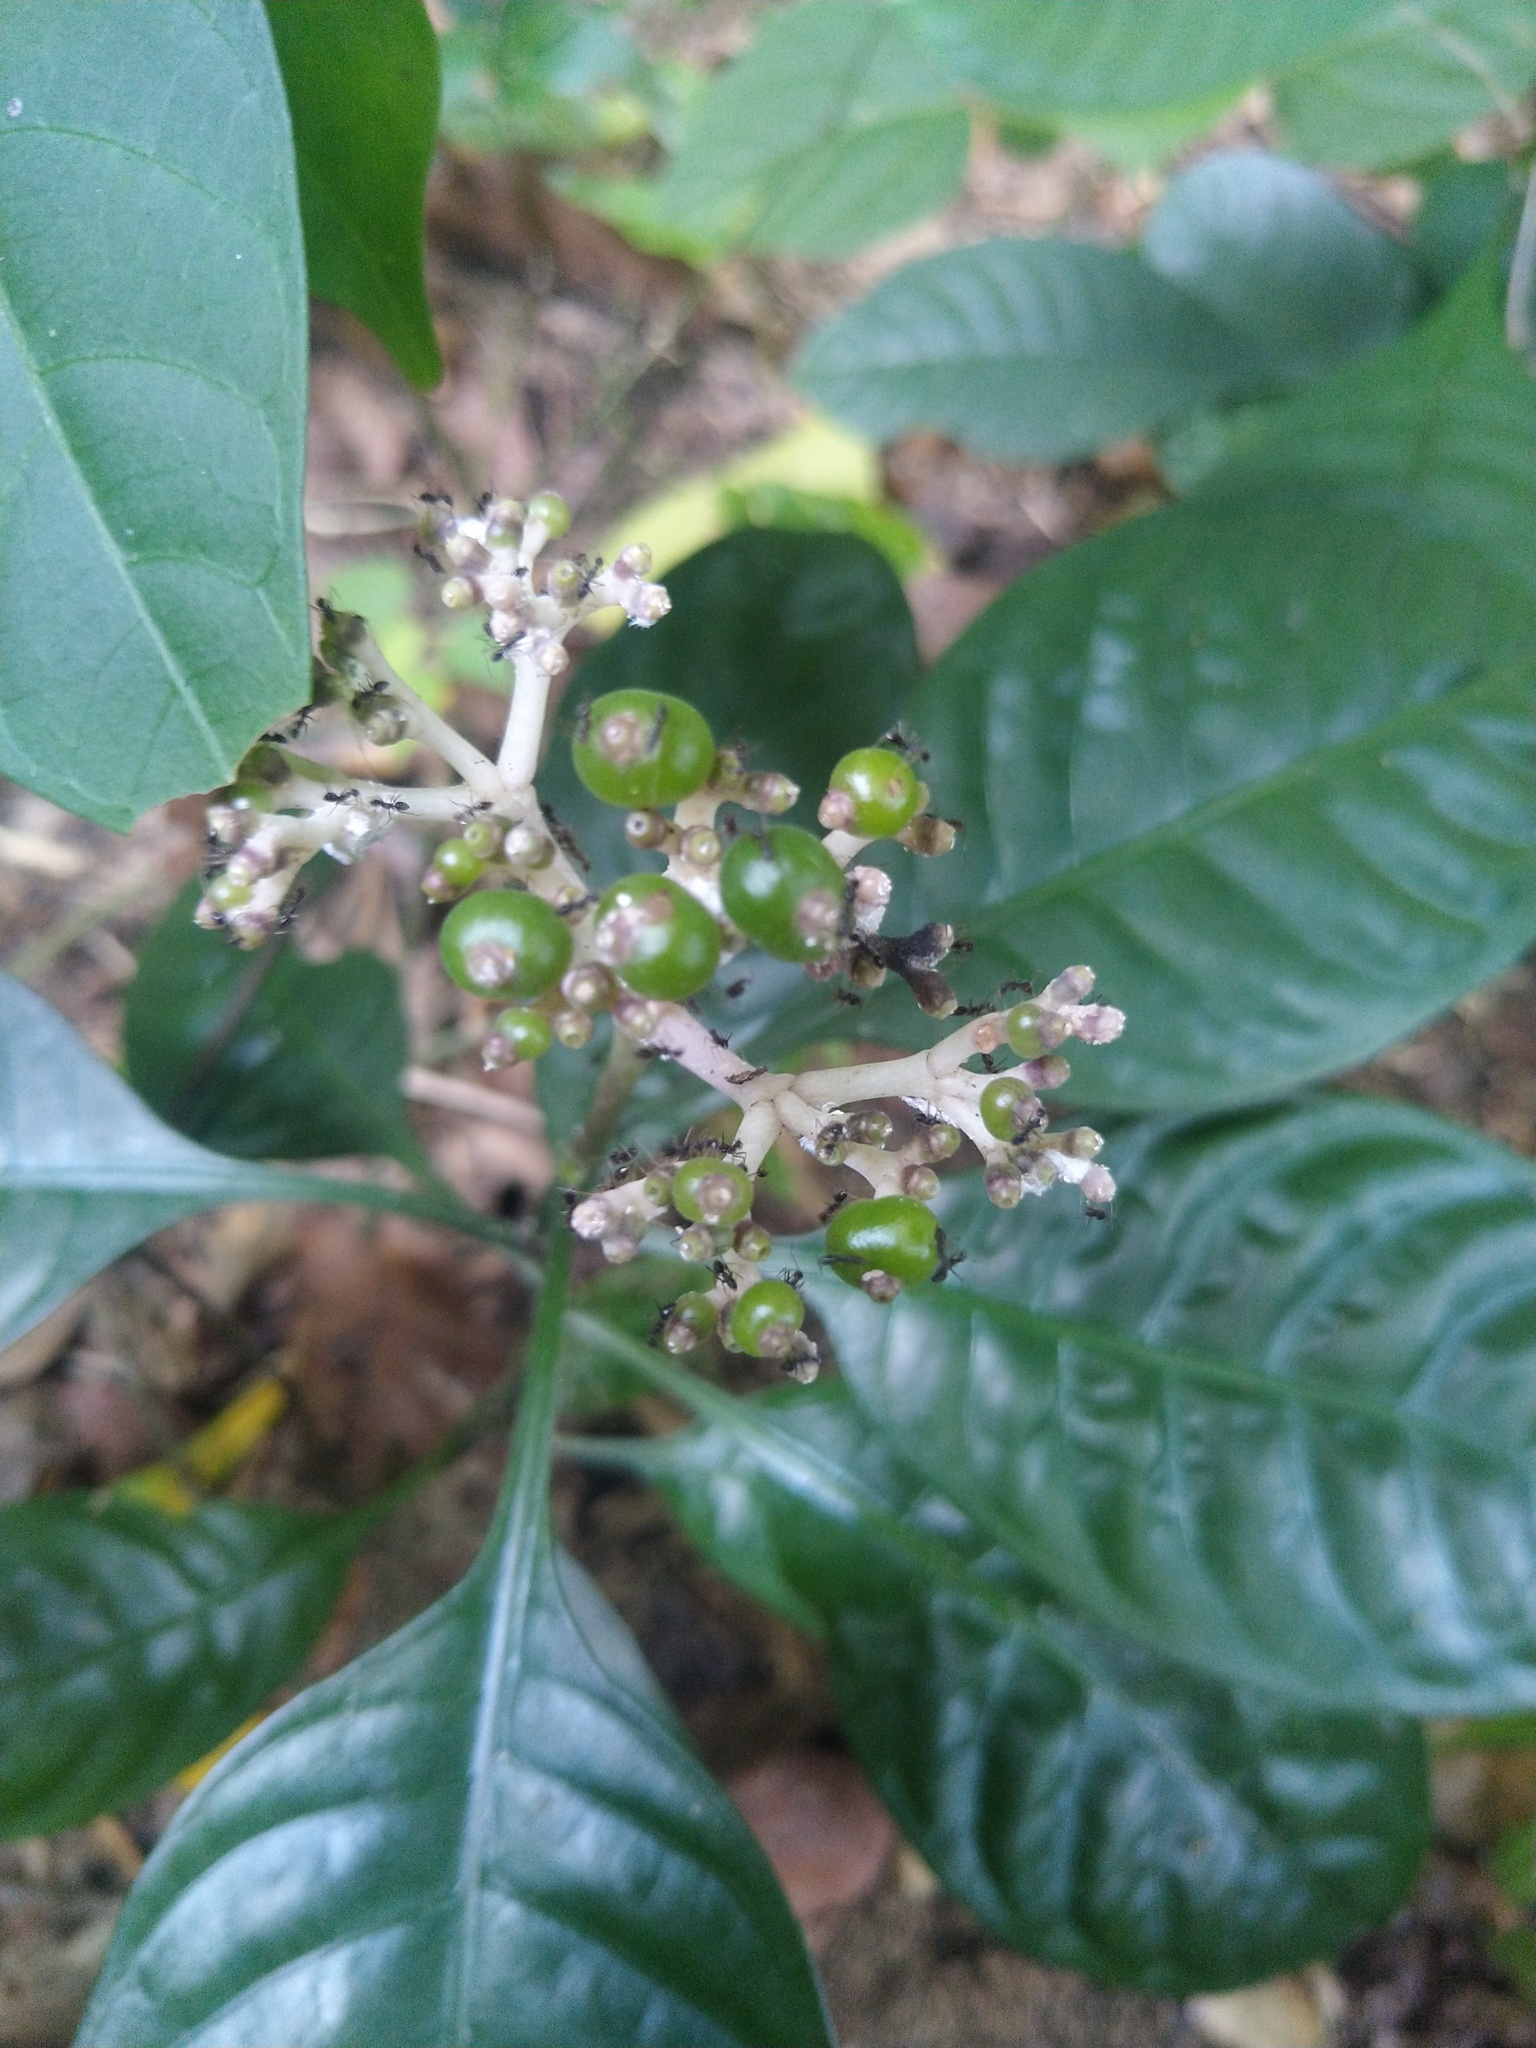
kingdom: Animalia
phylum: Arthropoda
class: Insecta
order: Hymenoptera
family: Formicidae
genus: Paratrechina
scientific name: Paratrechina longicornis
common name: Longhorned crazy ant
